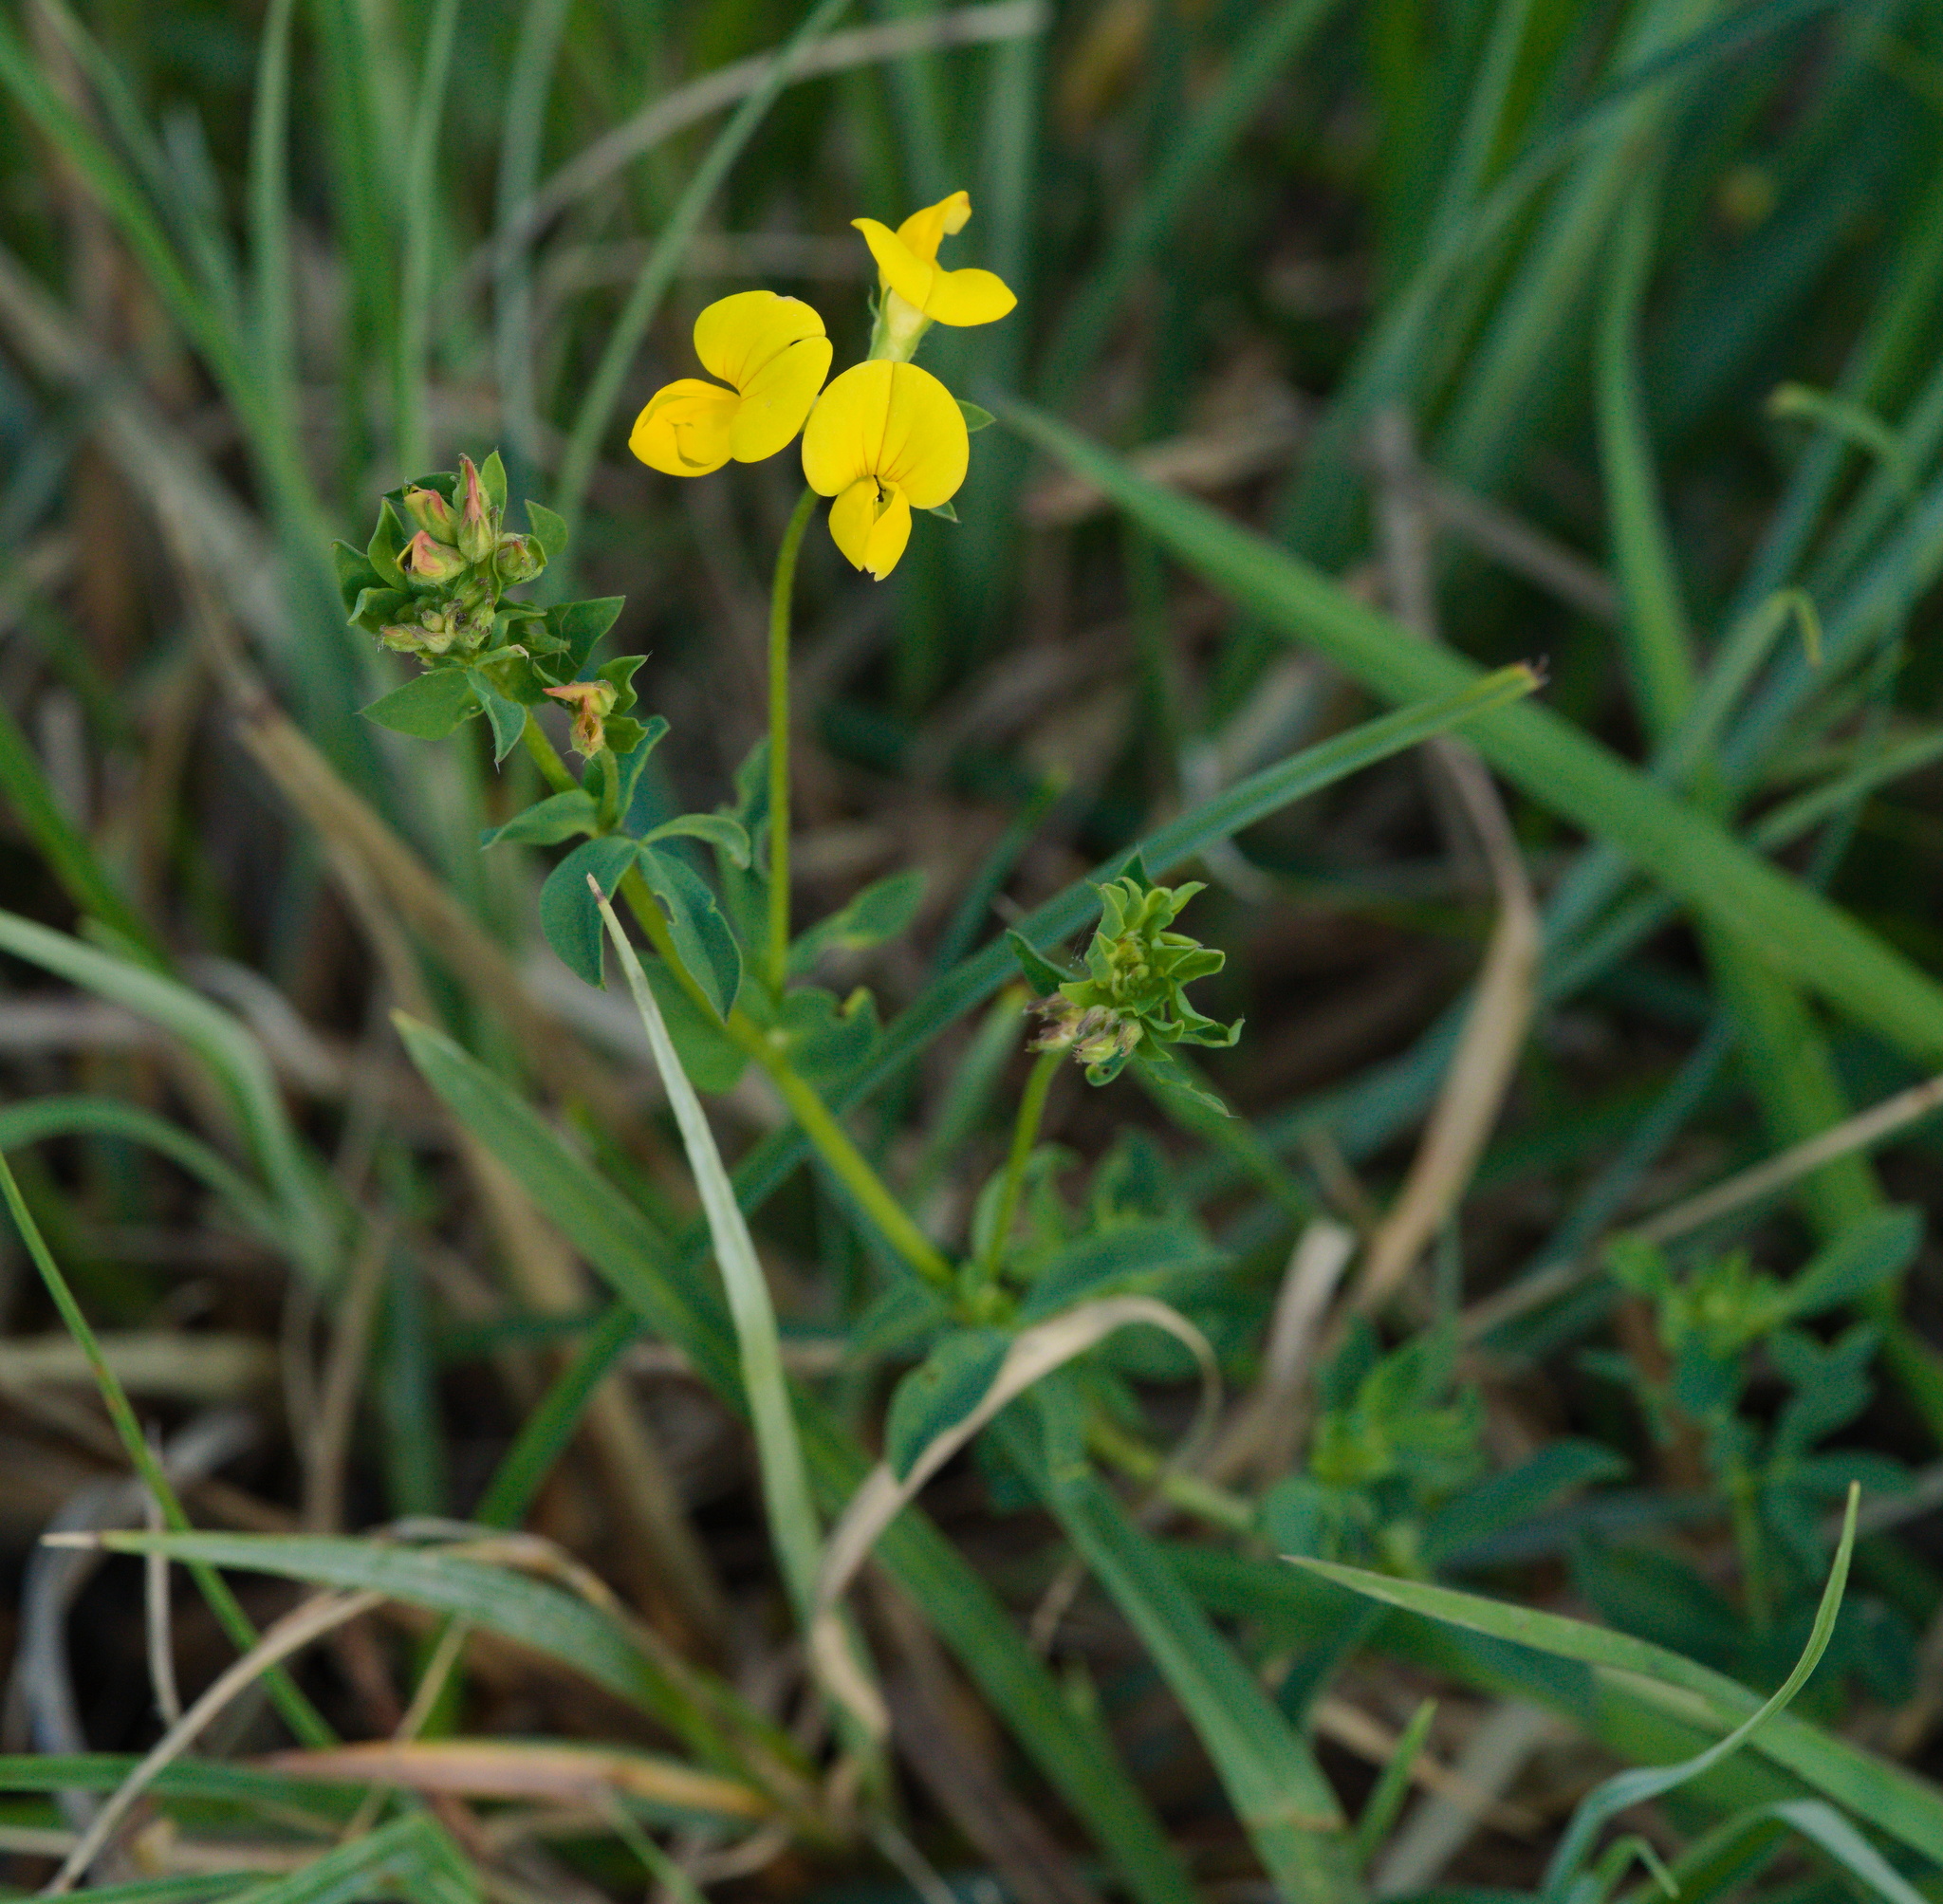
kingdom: Plantae
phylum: Tracheophyta
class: Magnoliopsida
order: Fabales
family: Fabaceae
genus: Lotus
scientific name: Lotus corniculatus
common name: Common bird's-foot-trefoil
